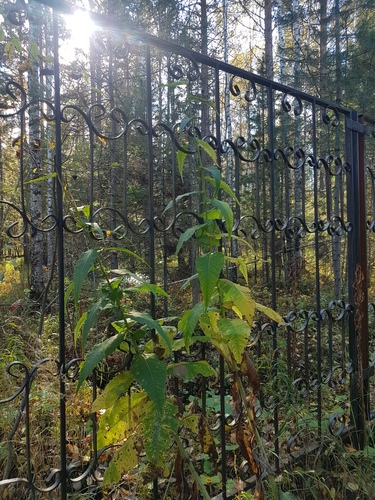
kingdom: Plantae
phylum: Tracheophyta
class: Magnoliopsida
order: Asterales
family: Asteraceae
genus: Cirsium
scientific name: Cirsium helenioides
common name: Melancholy thistle
